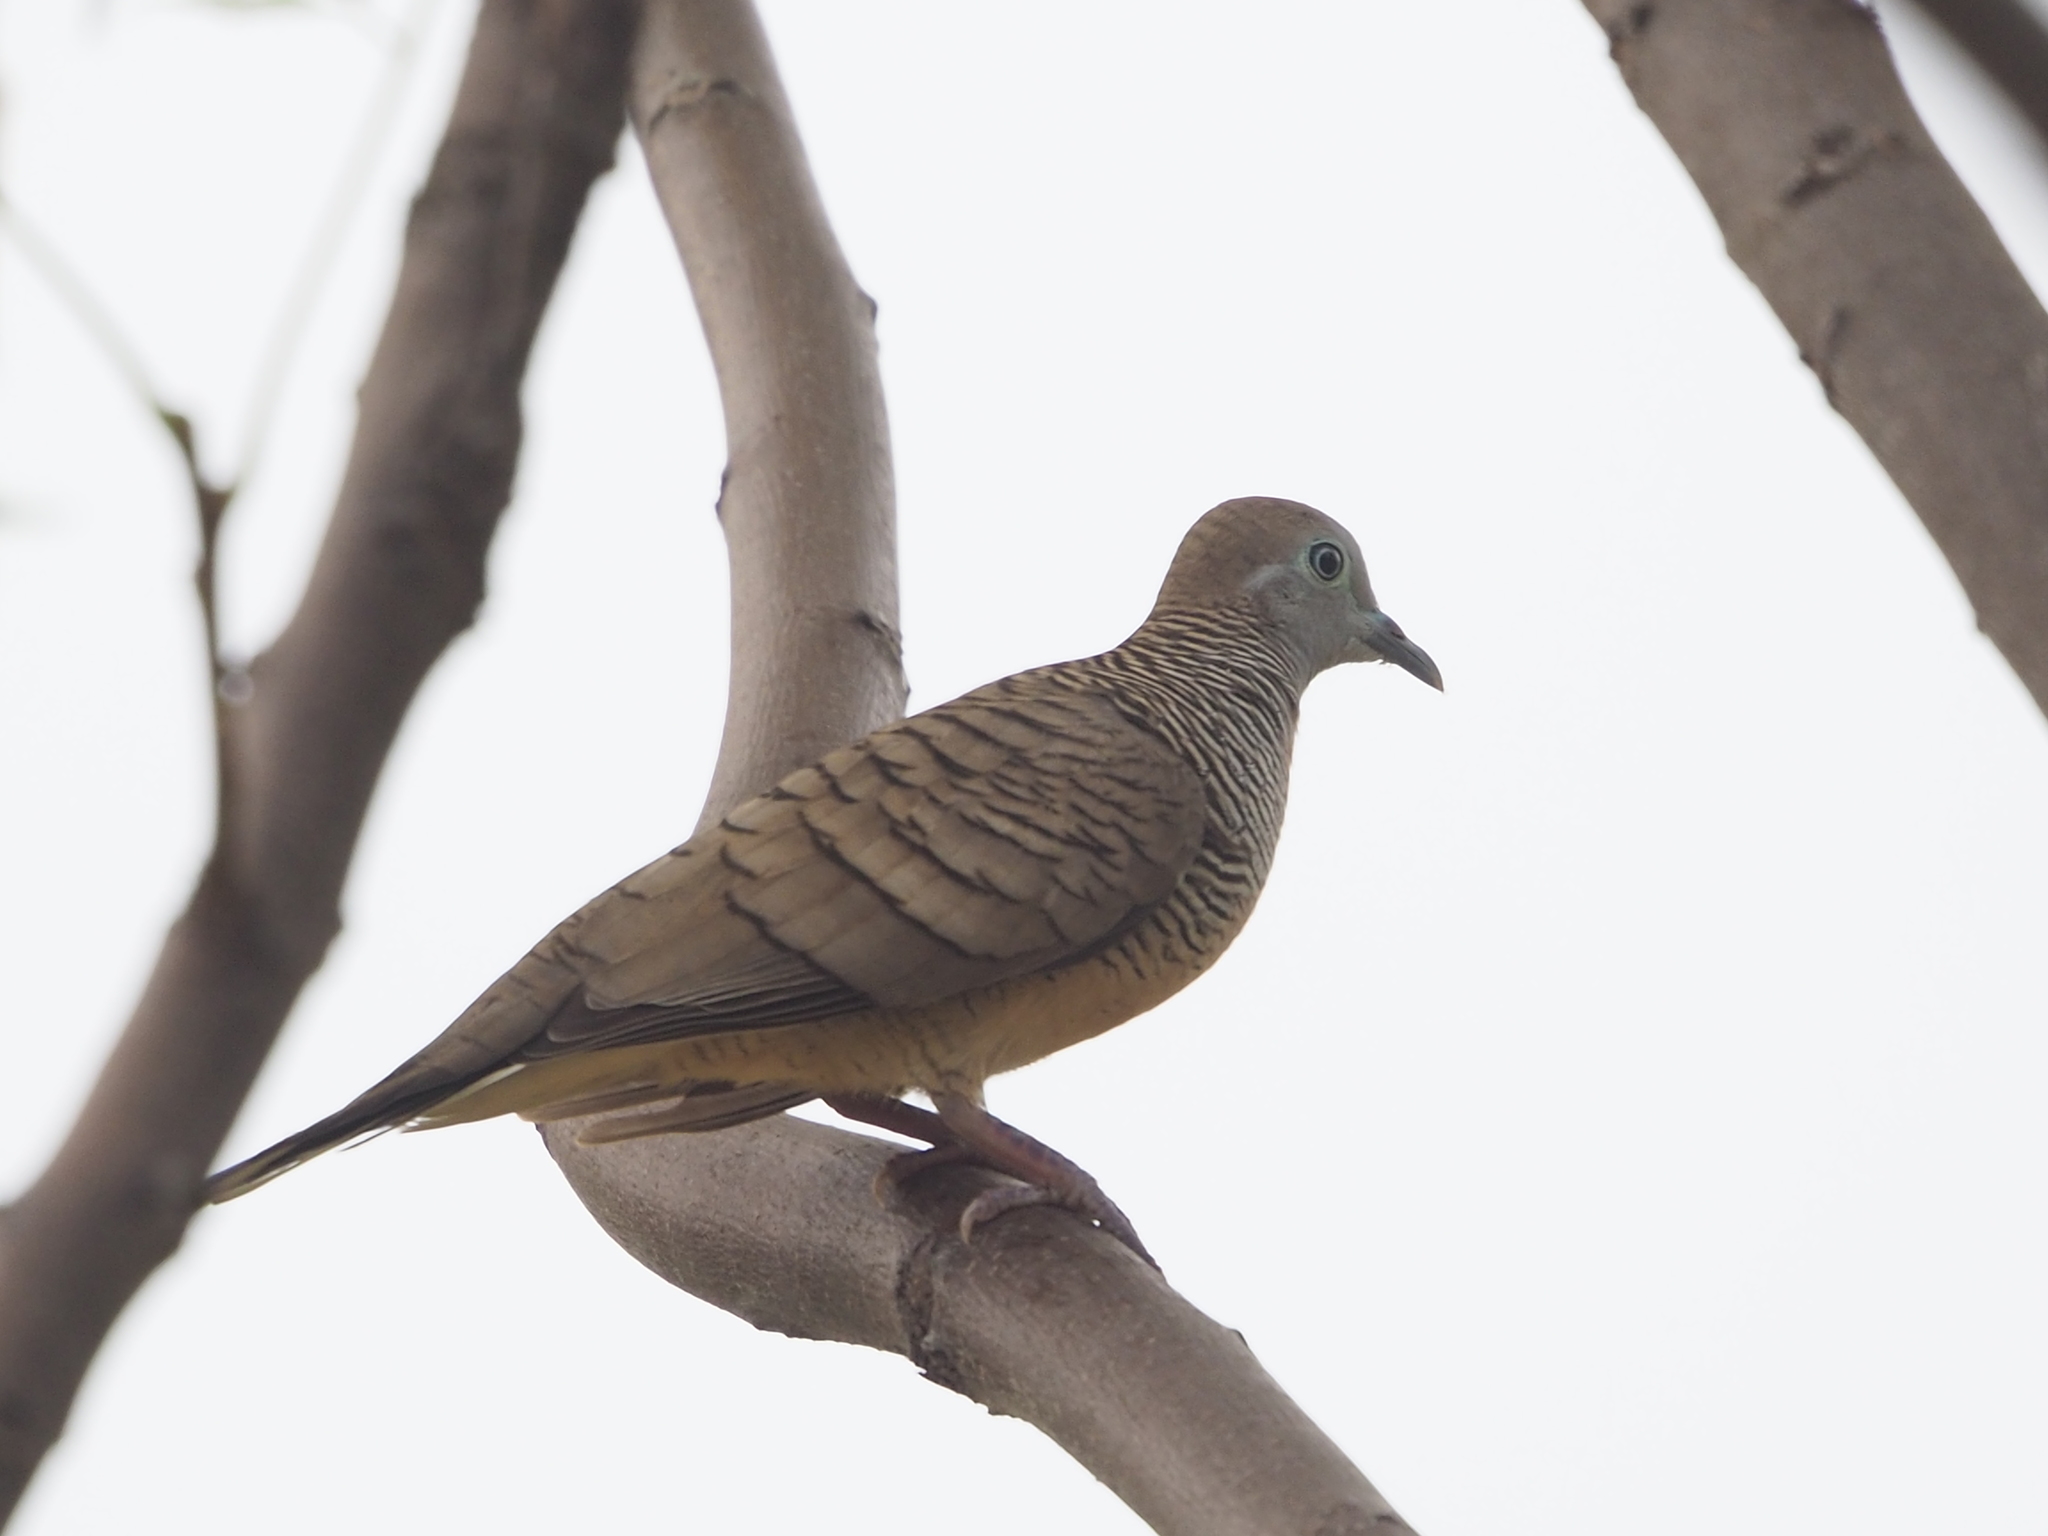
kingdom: Animalia
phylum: Chordata
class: Aves
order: Columbiformes
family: Columbidae
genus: Geopelia
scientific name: Geopelia striata
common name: Zebra dove
